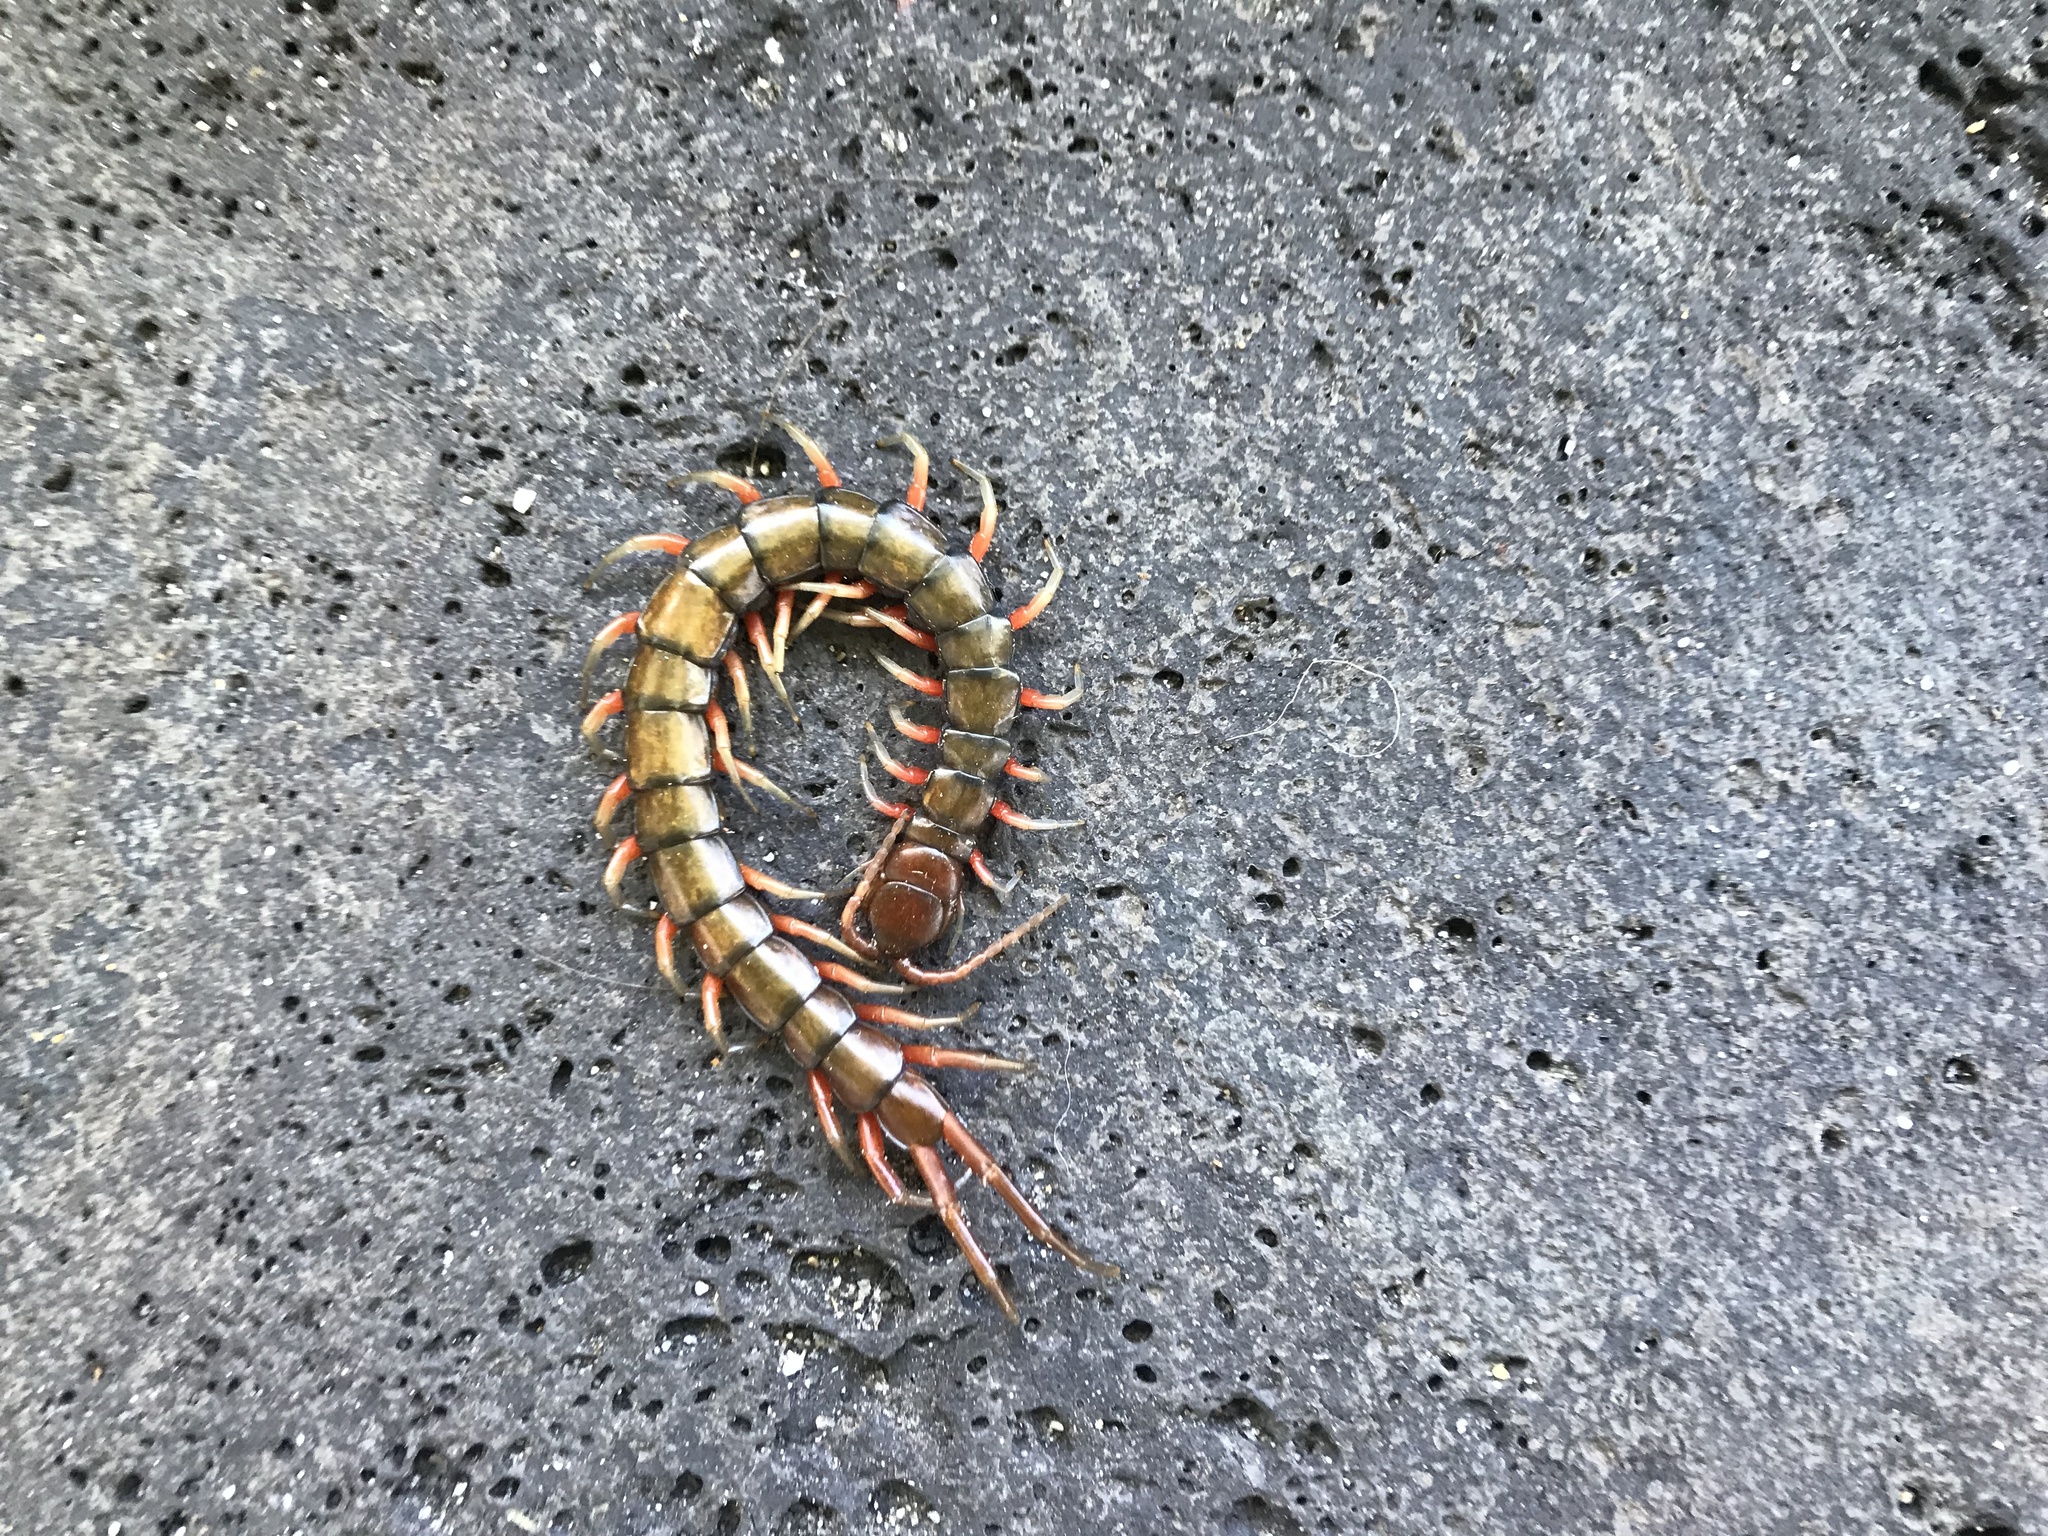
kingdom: Animalia
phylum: Arthropoda
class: Chilopoda
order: Scolopendromorpha
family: Scolopendridae
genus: Scolopendra
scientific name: Scolopendra subspinipes
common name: Centipede
